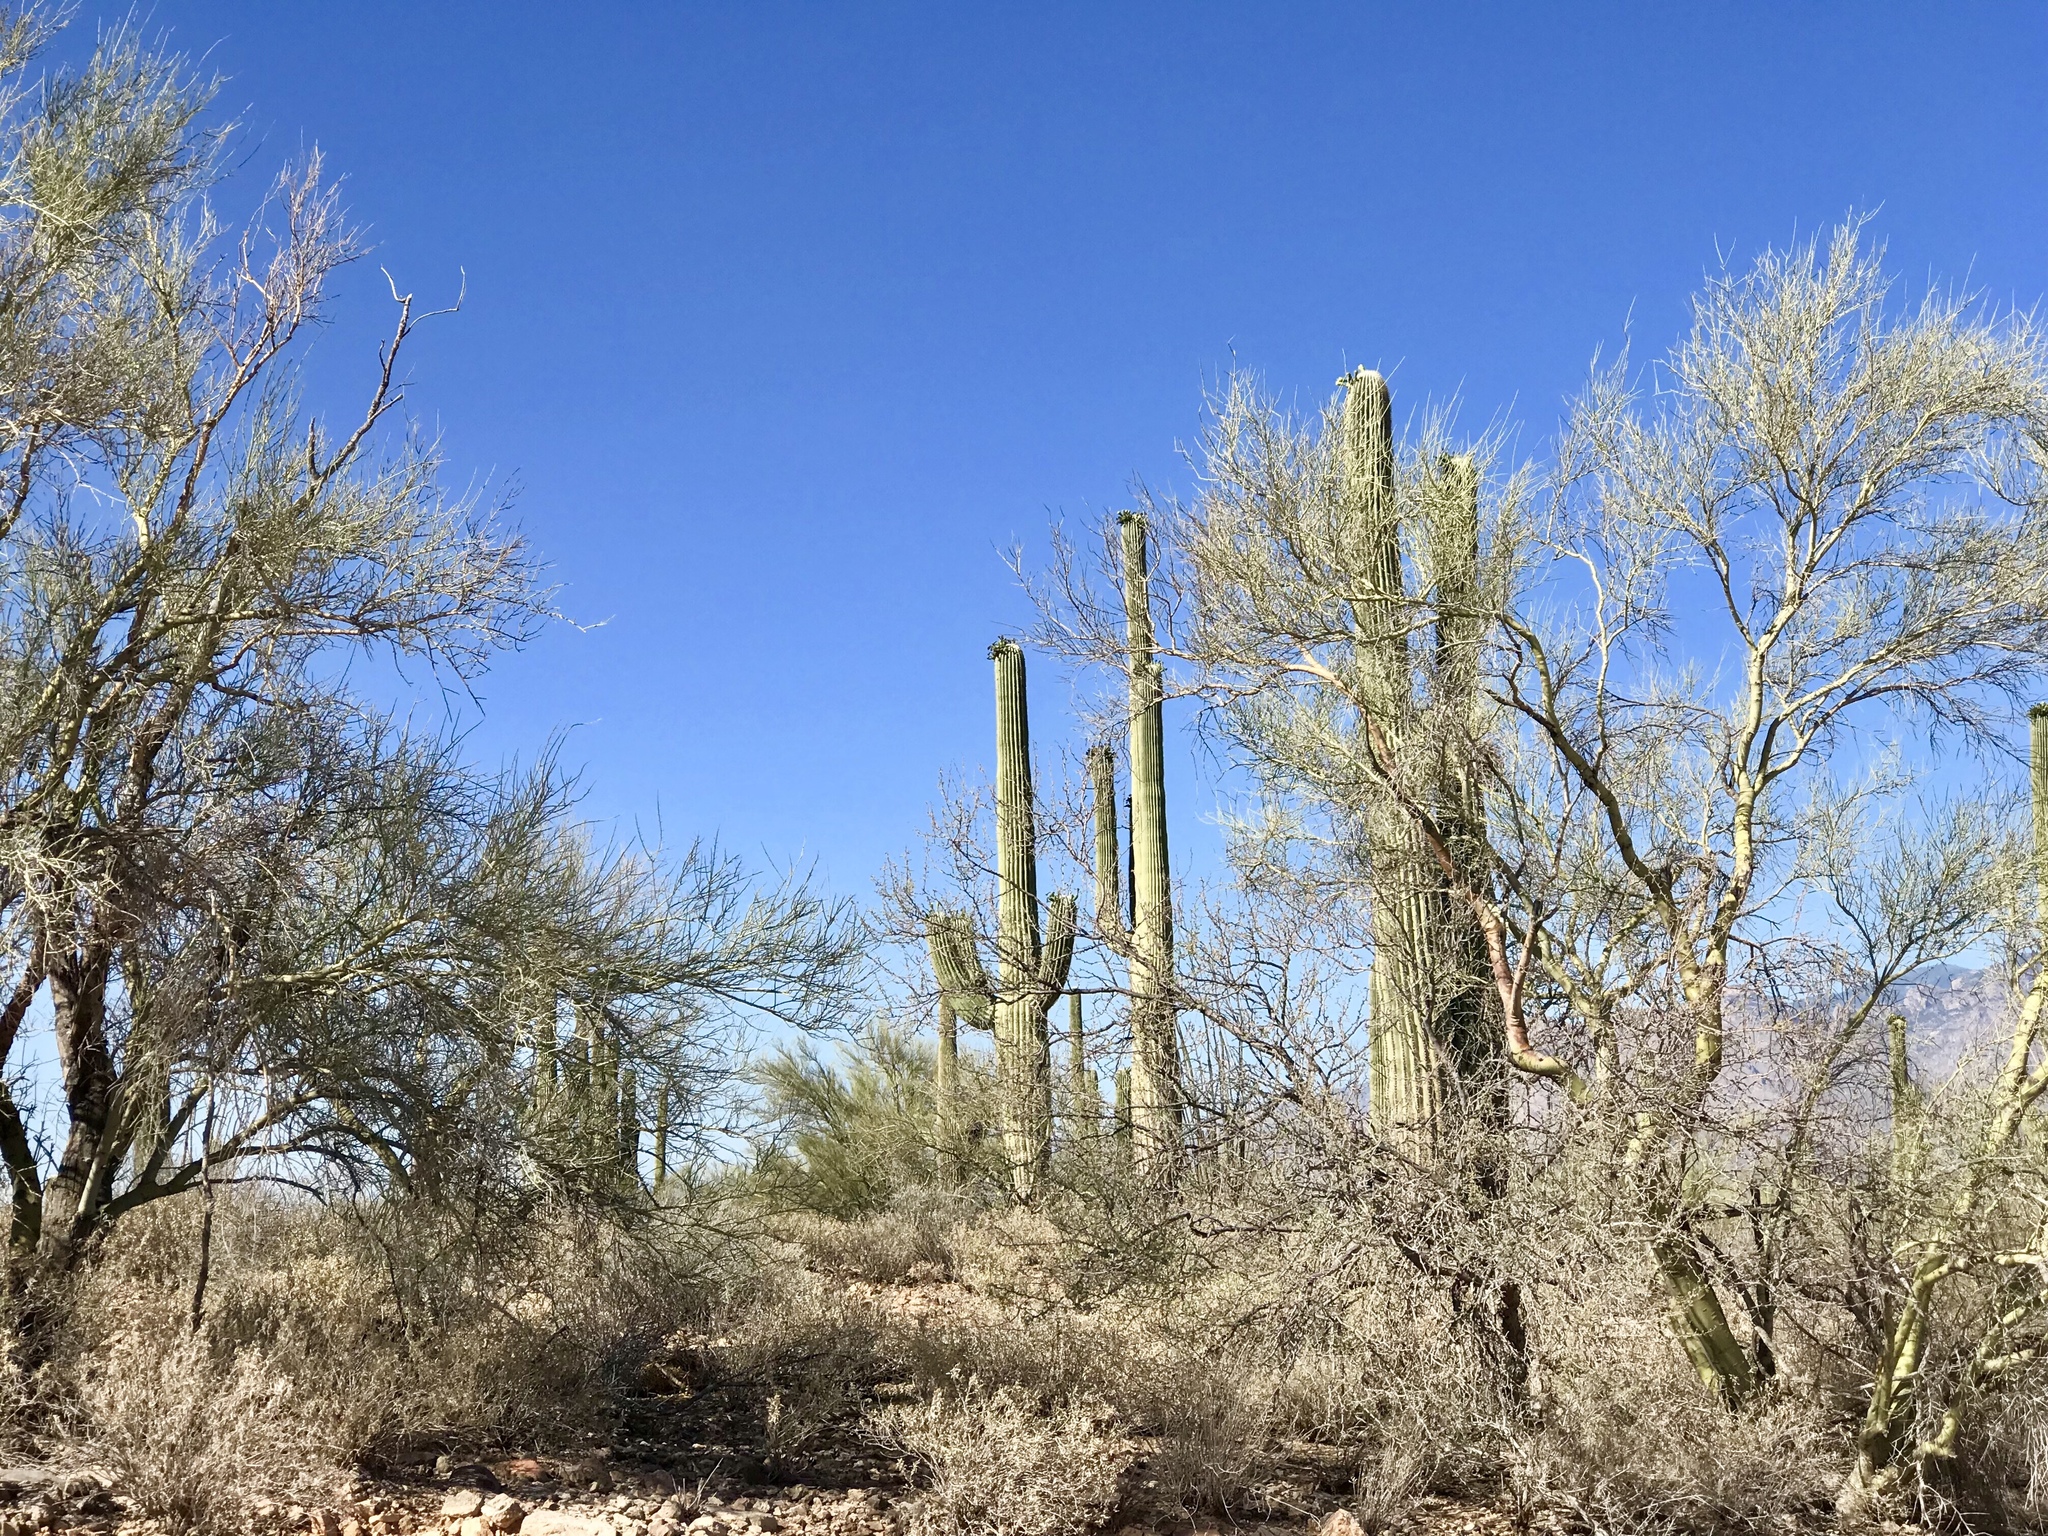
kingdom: Plantae
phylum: Tracheophyta
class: Magnoliopsida
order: Fabales
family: Fabaceae
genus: Parkinsonia
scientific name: Parkinsonia microphylla
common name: Yellow paloverde
